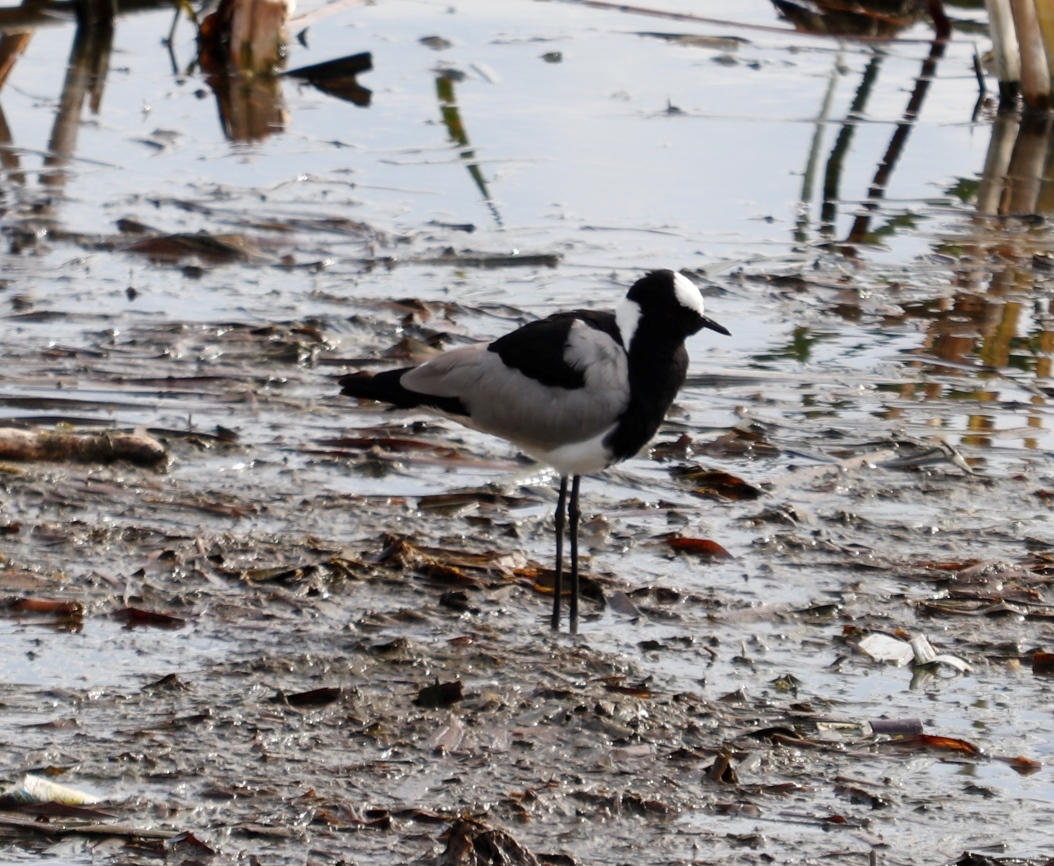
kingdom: Animalia
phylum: Chordata
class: Aves
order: Charadriiformes
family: Charadriidae
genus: Vanellus
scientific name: Vanellus armatus
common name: Blacksmith lapwing
